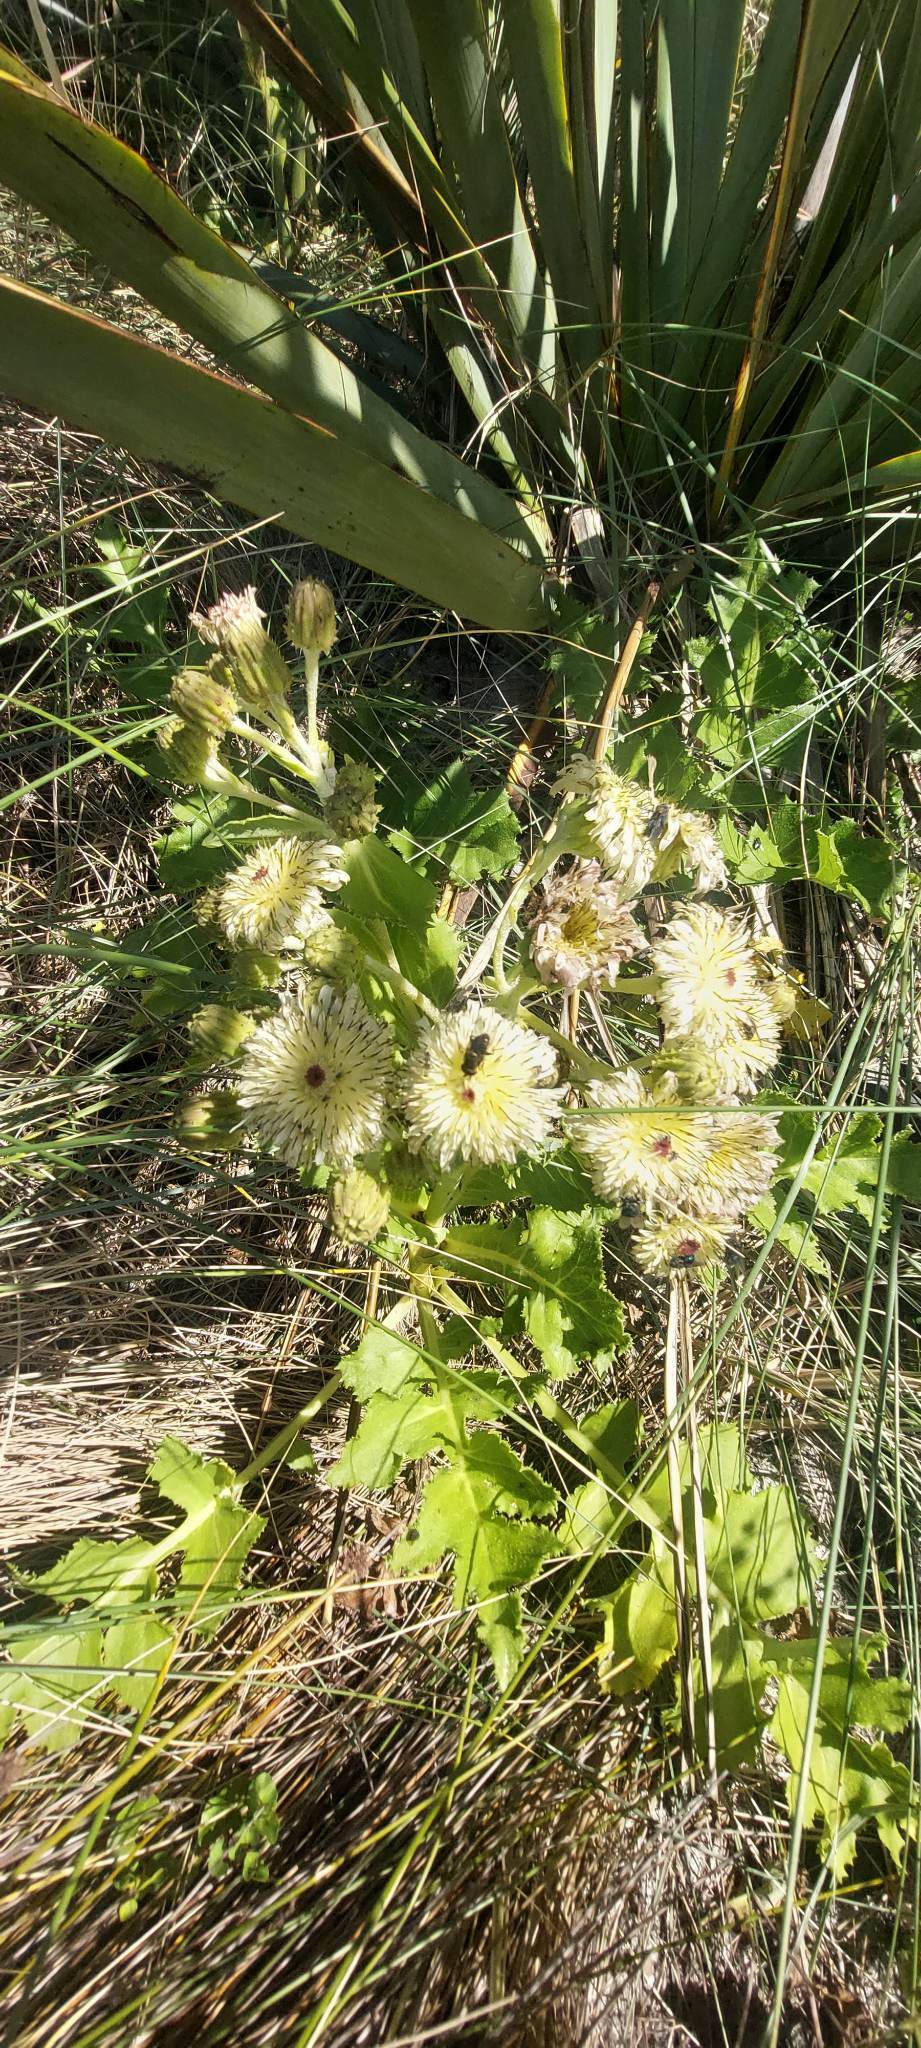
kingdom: Plantae
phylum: Tracheophyta
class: Magnoliopsida
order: Asterales
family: Asteraceae
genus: Sonchus
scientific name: Sonchus grandifolius
